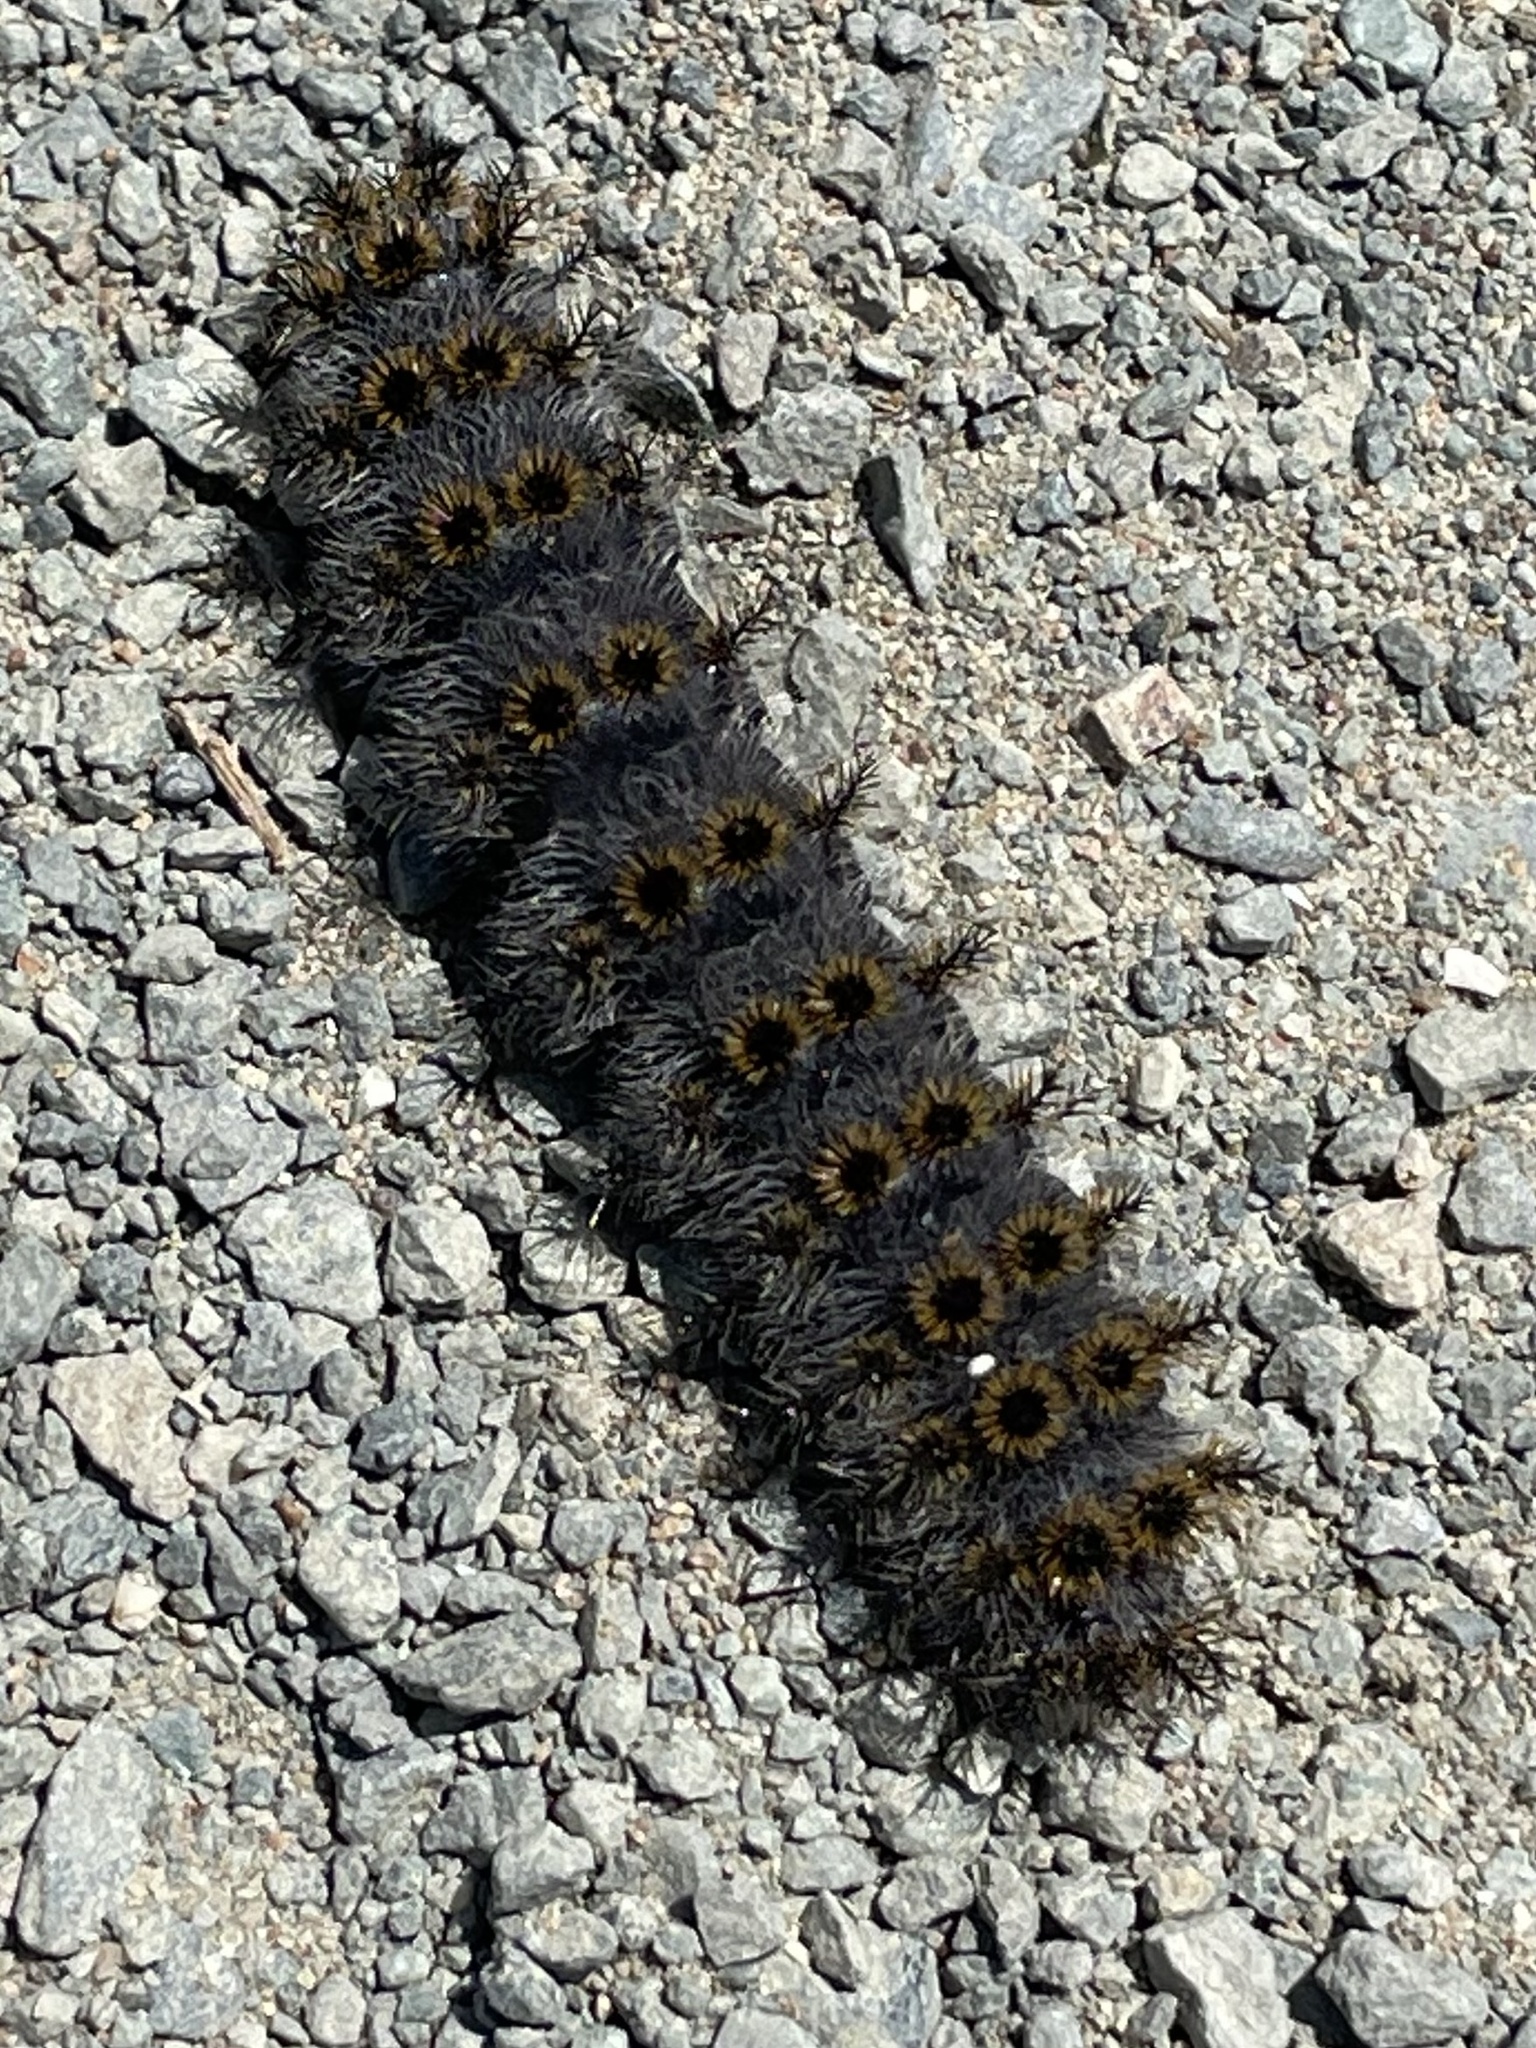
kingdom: Animalia
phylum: Arthropoda
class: Insecta
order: Lepidoptera
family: Saturniidae
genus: Hemileuca
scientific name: Hemileuca eglanterina
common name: Western sheepmoth
